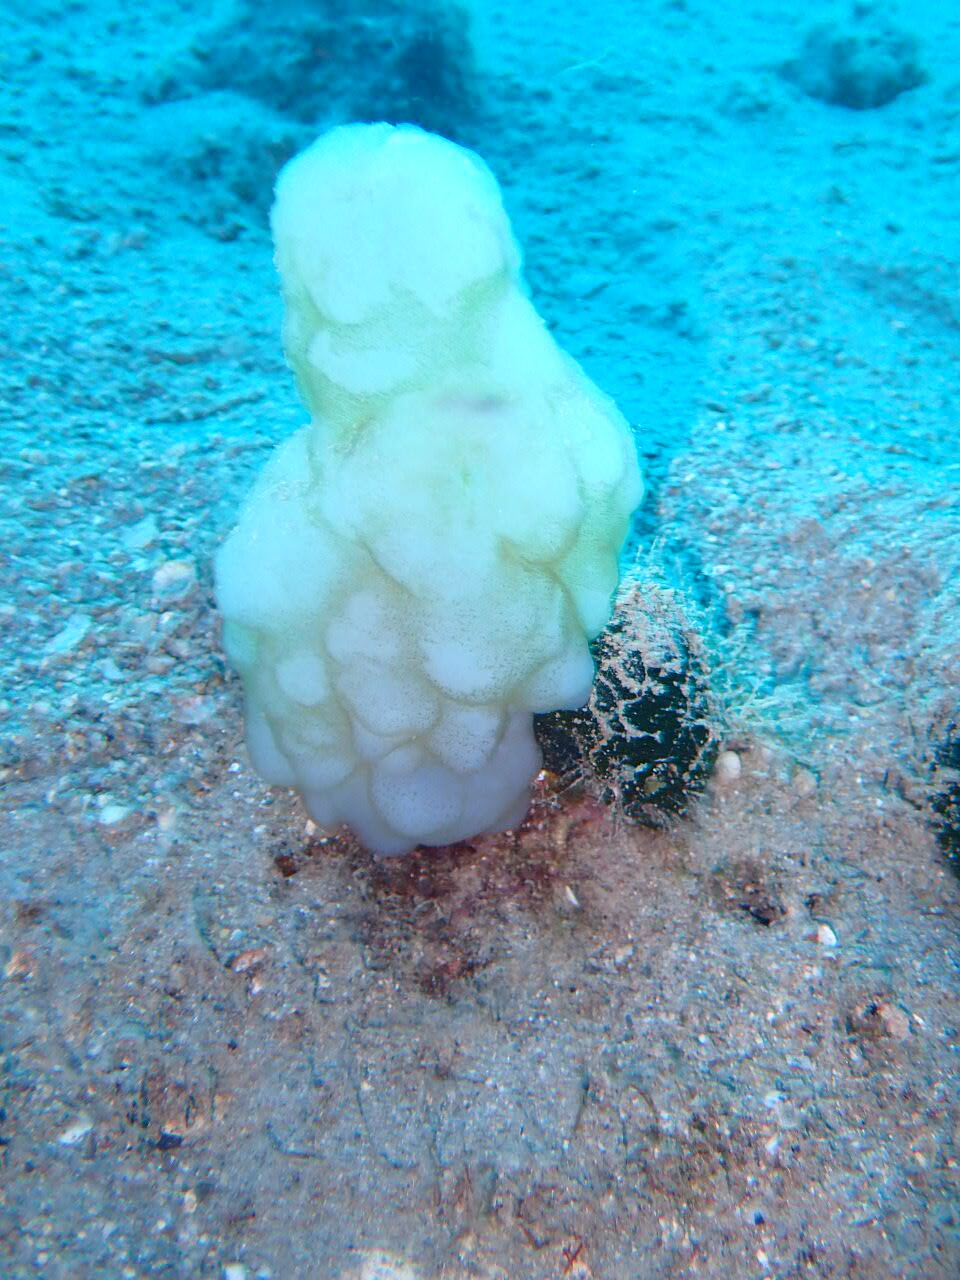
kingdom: Animalia
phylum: Chordata
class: Ascidiacea
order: Phlebobranchia
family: Ascidiidae
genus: Phallusia
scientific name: Phallusia mammillata
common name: Neptune's heart sea squirt
